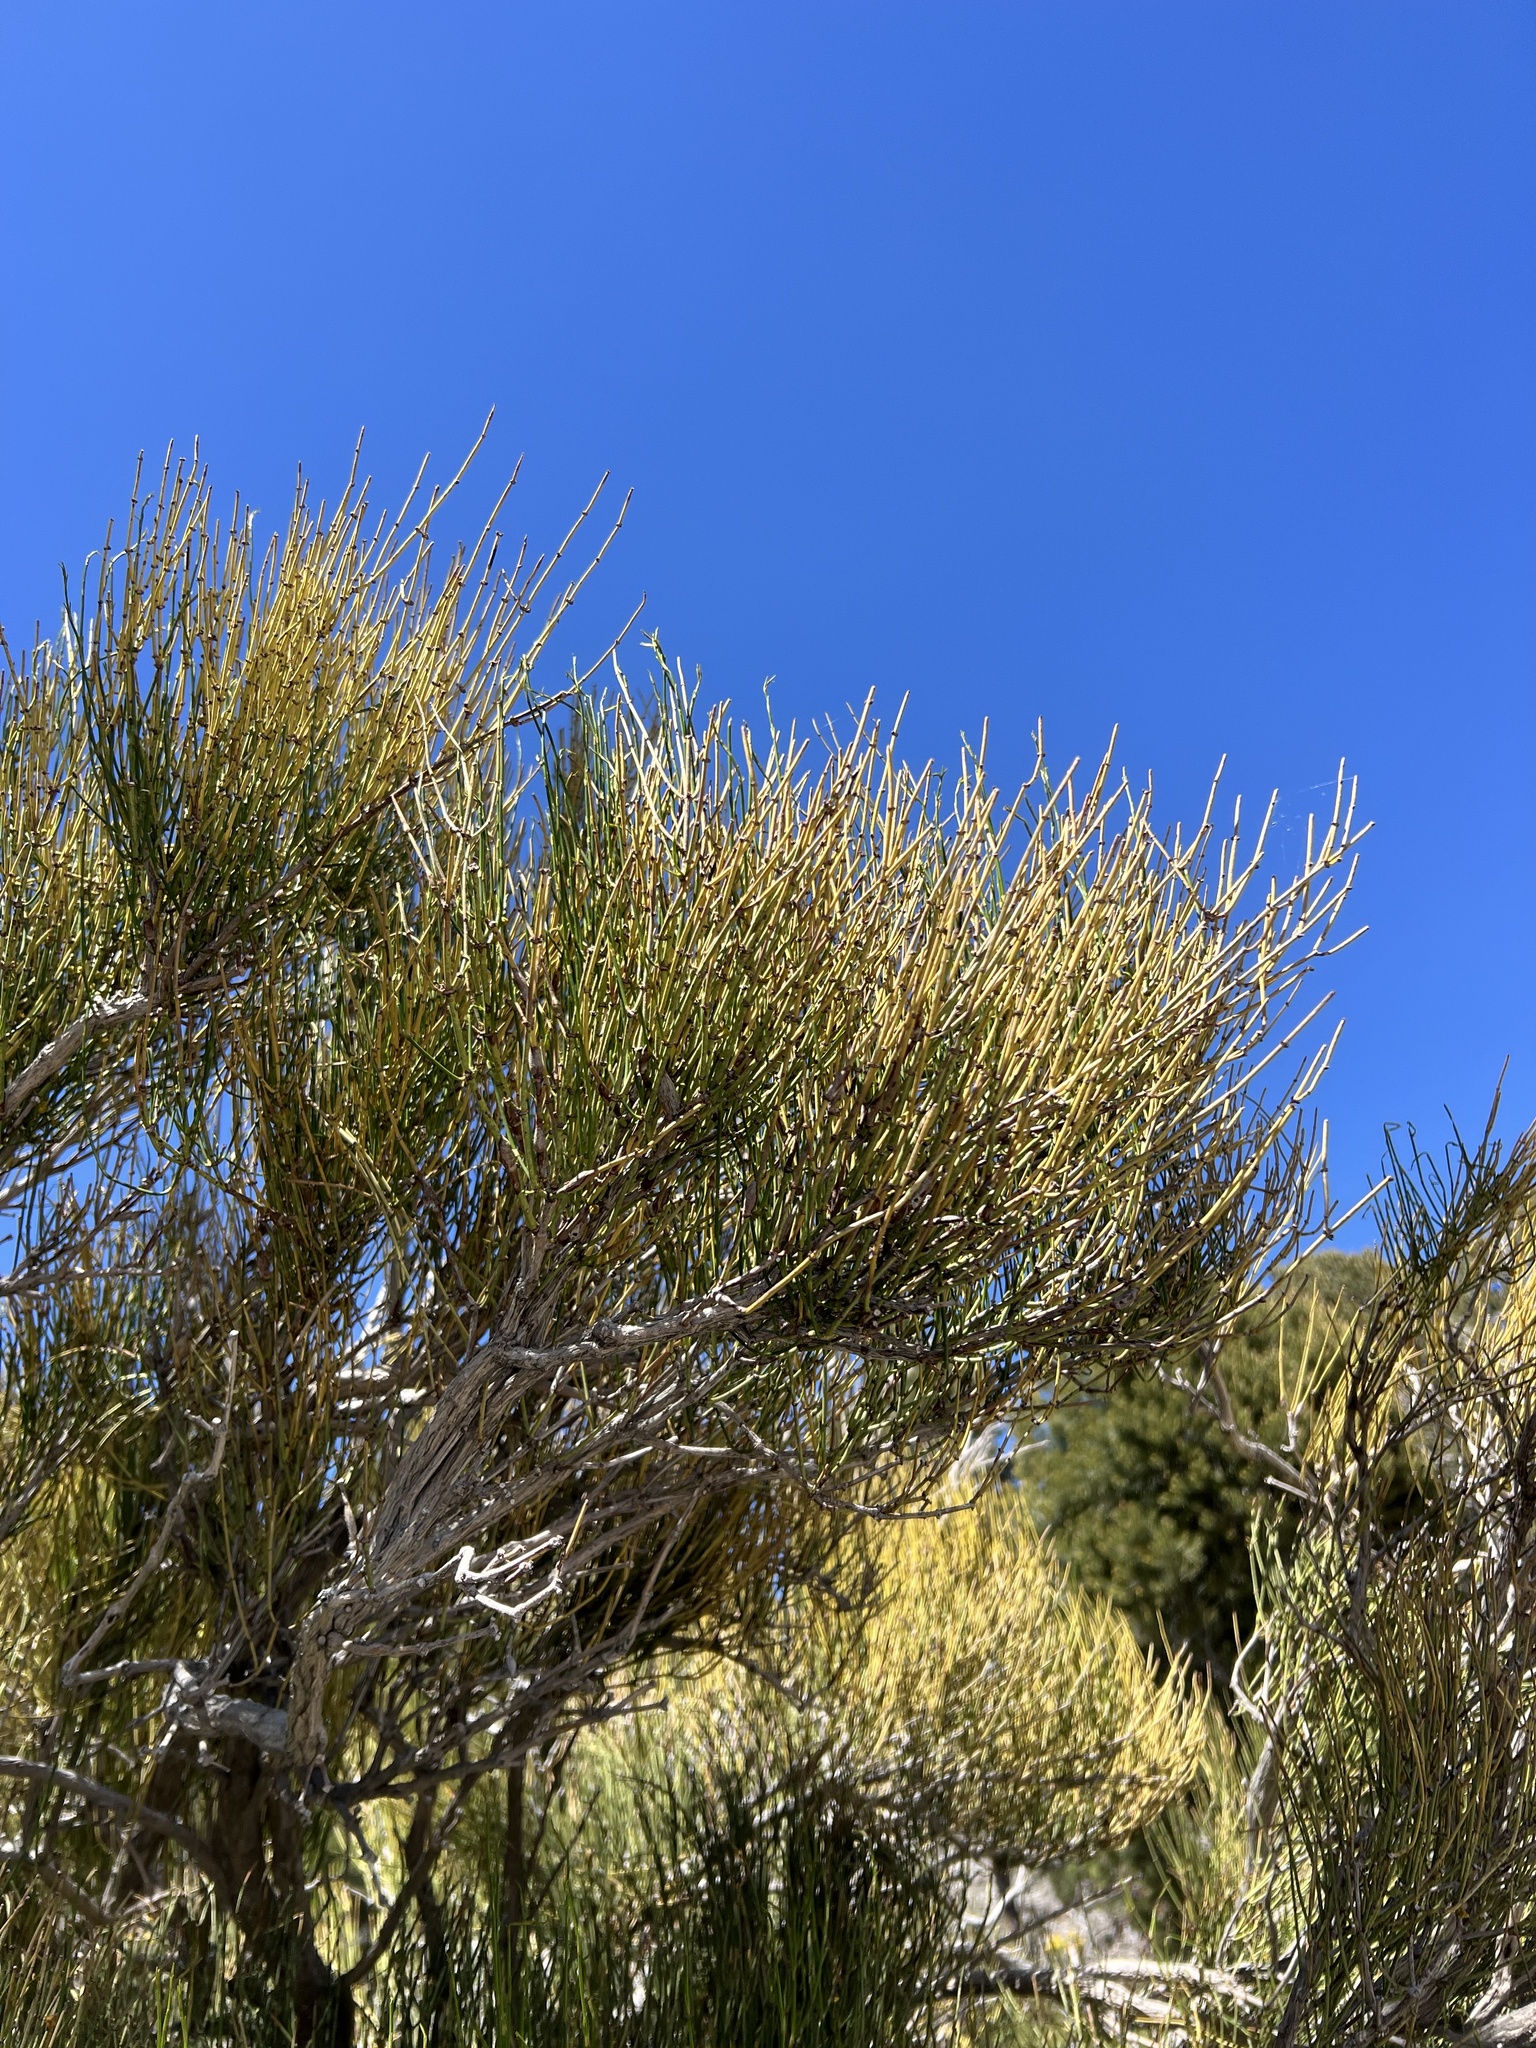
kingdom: Plantae
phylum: Tracheophyta
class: Gnetopsida
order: Ephedrales
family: Ephedraceae
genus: Ephedra
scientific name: Ephedra viridis
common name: Green ephedra
